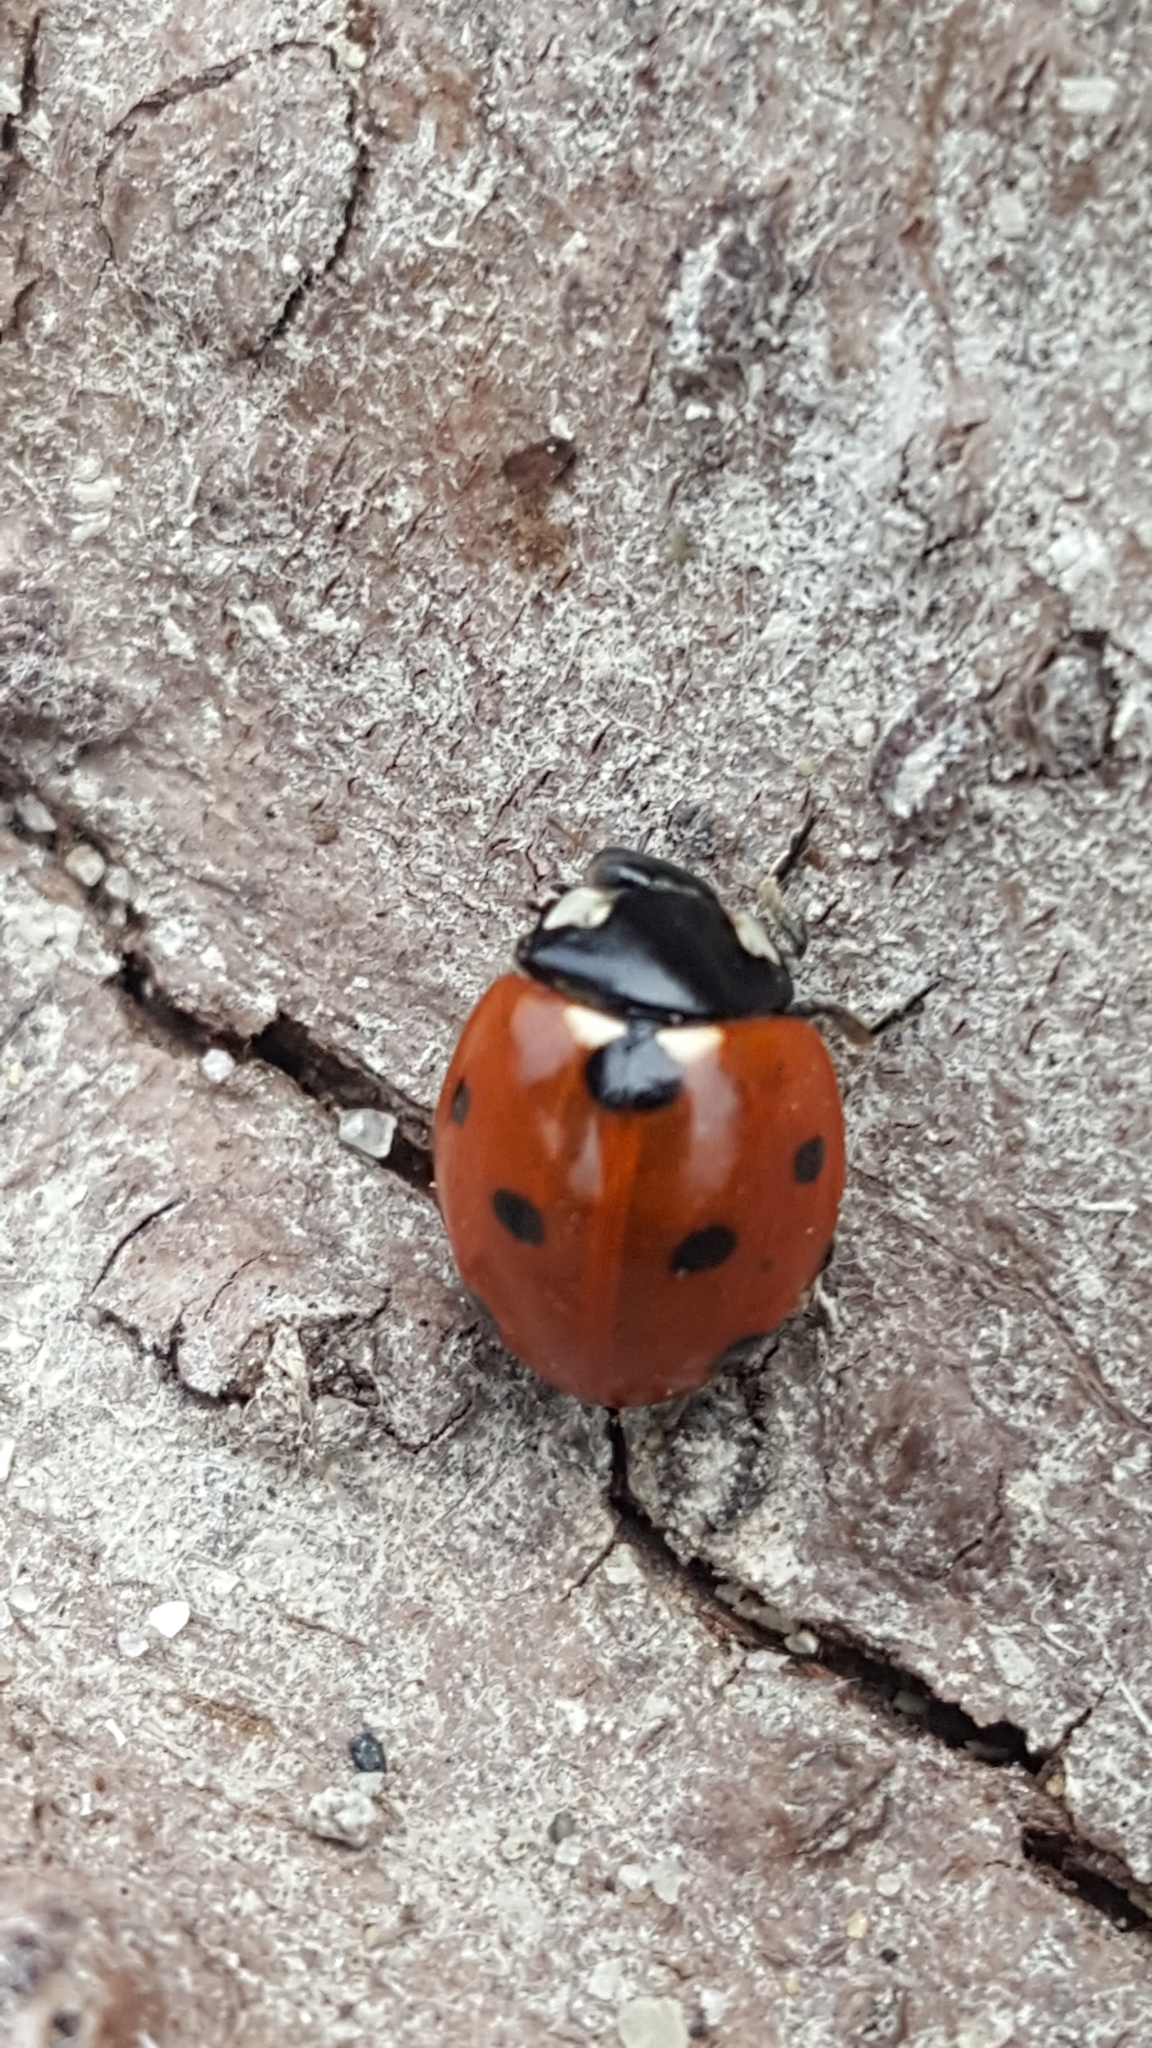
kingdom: Animalia
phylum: Arthropoda
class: Insecta
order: Coleoptera
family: Coccinellidae
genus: Coccinella
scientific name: Coccinella septempunctata
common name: Sevenspotted lady beetle
